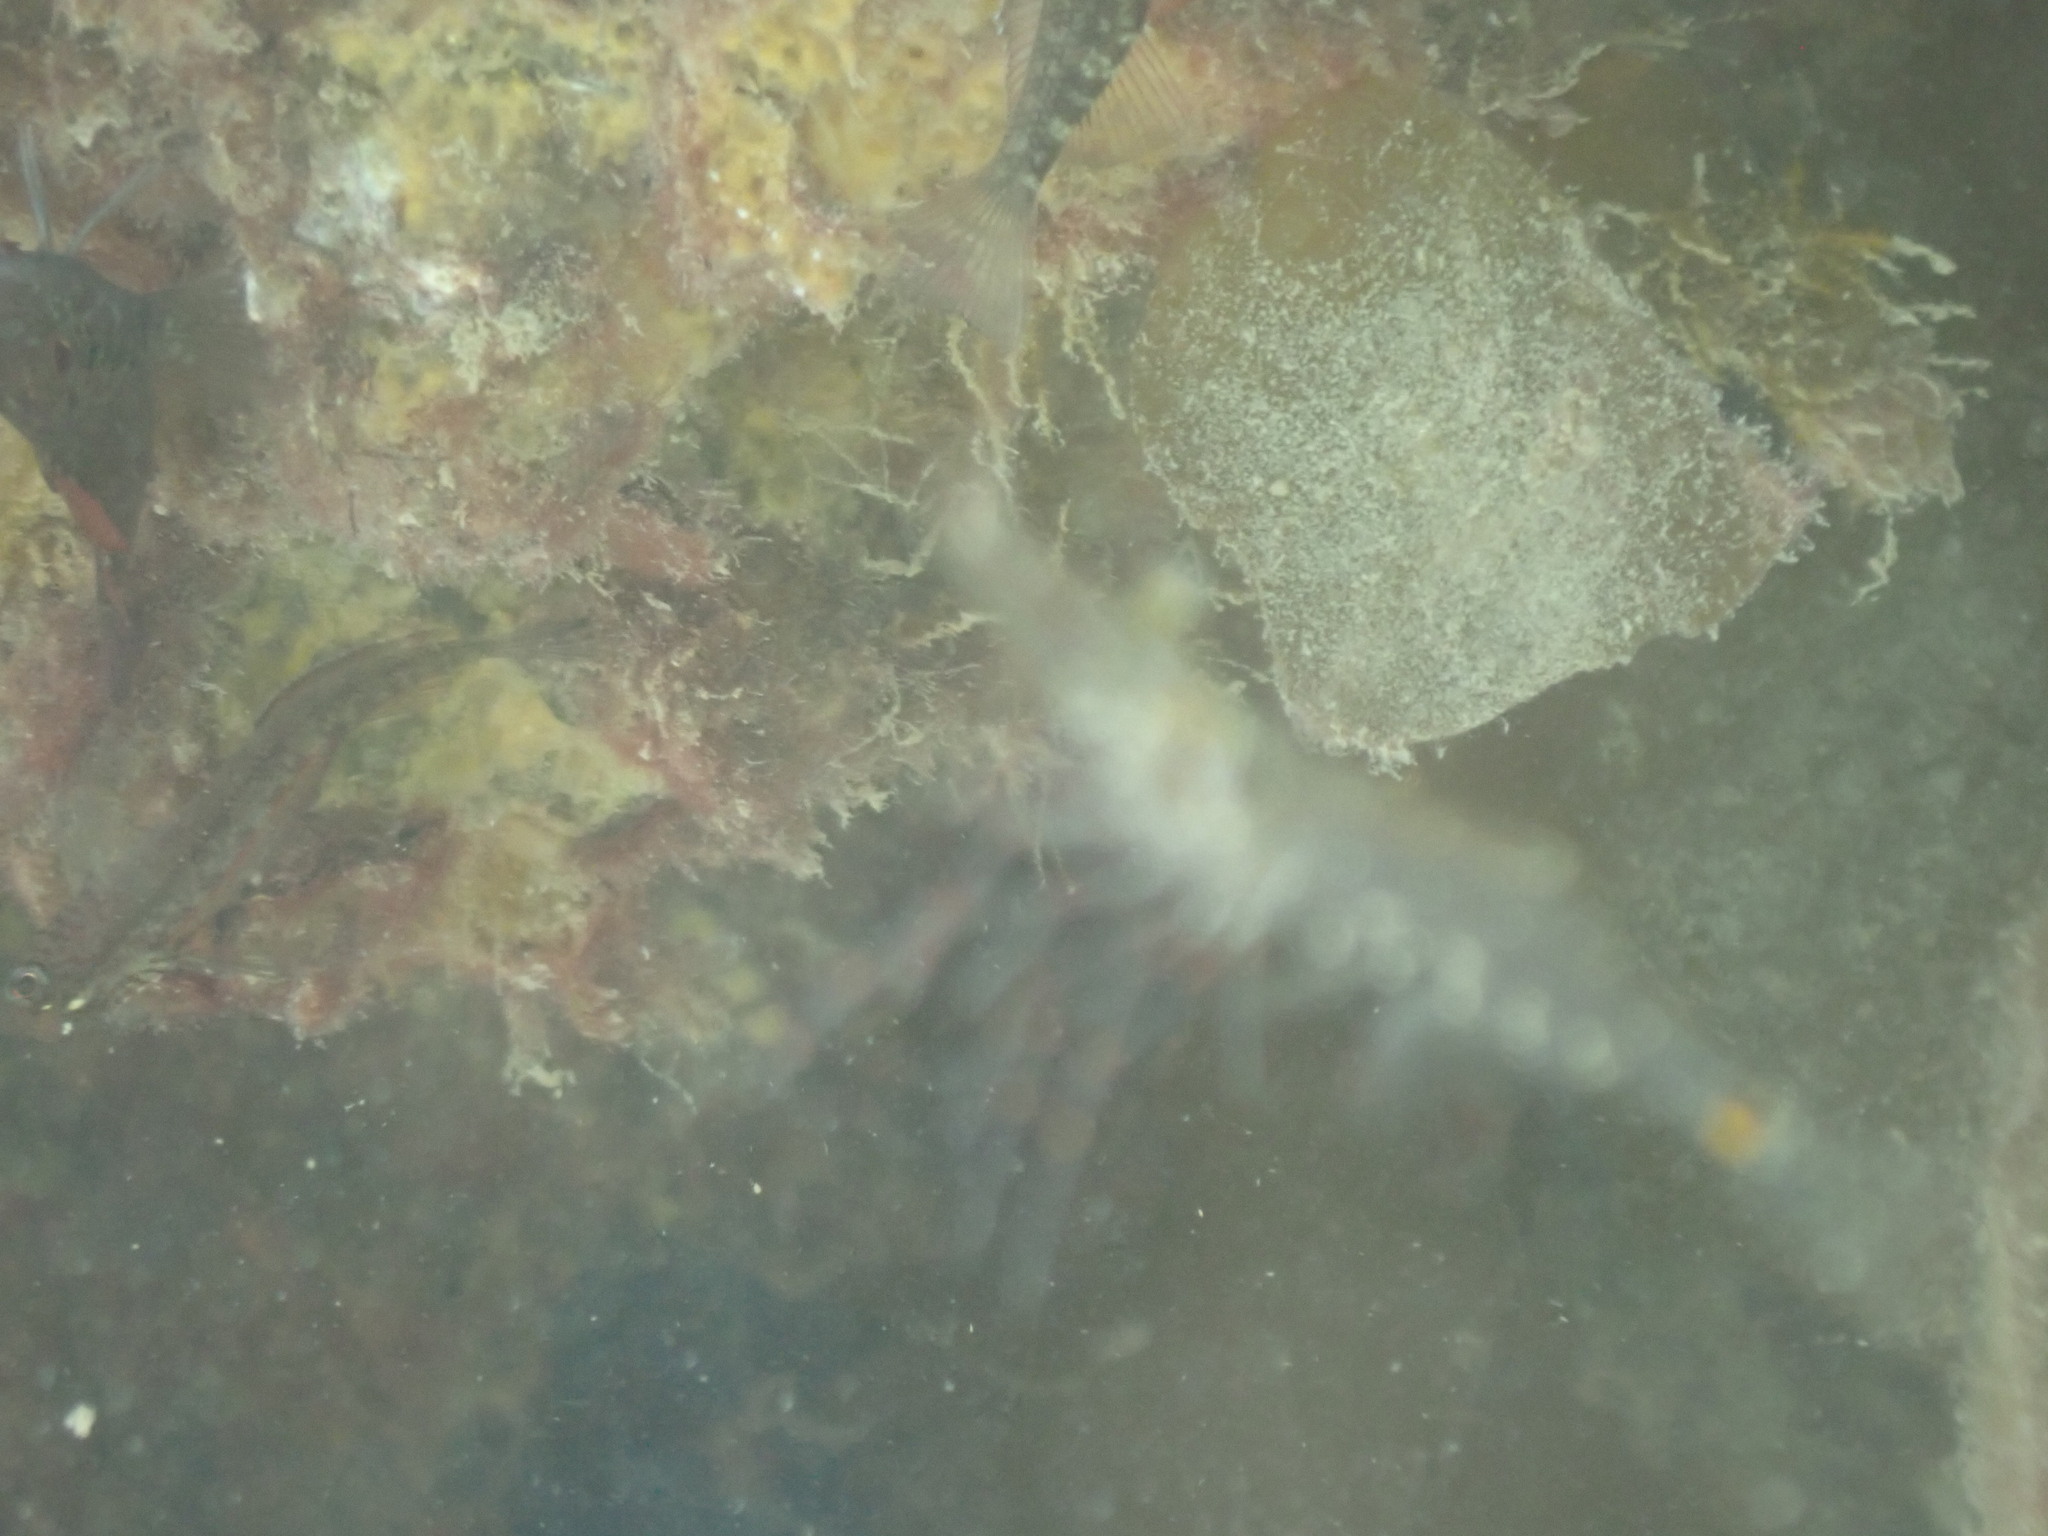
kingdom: Animalia
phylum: Arthropoda
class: Malacostraca
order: Decapoda
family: Palaemonidae
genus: Palaemon
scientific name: Palaemon affinis
